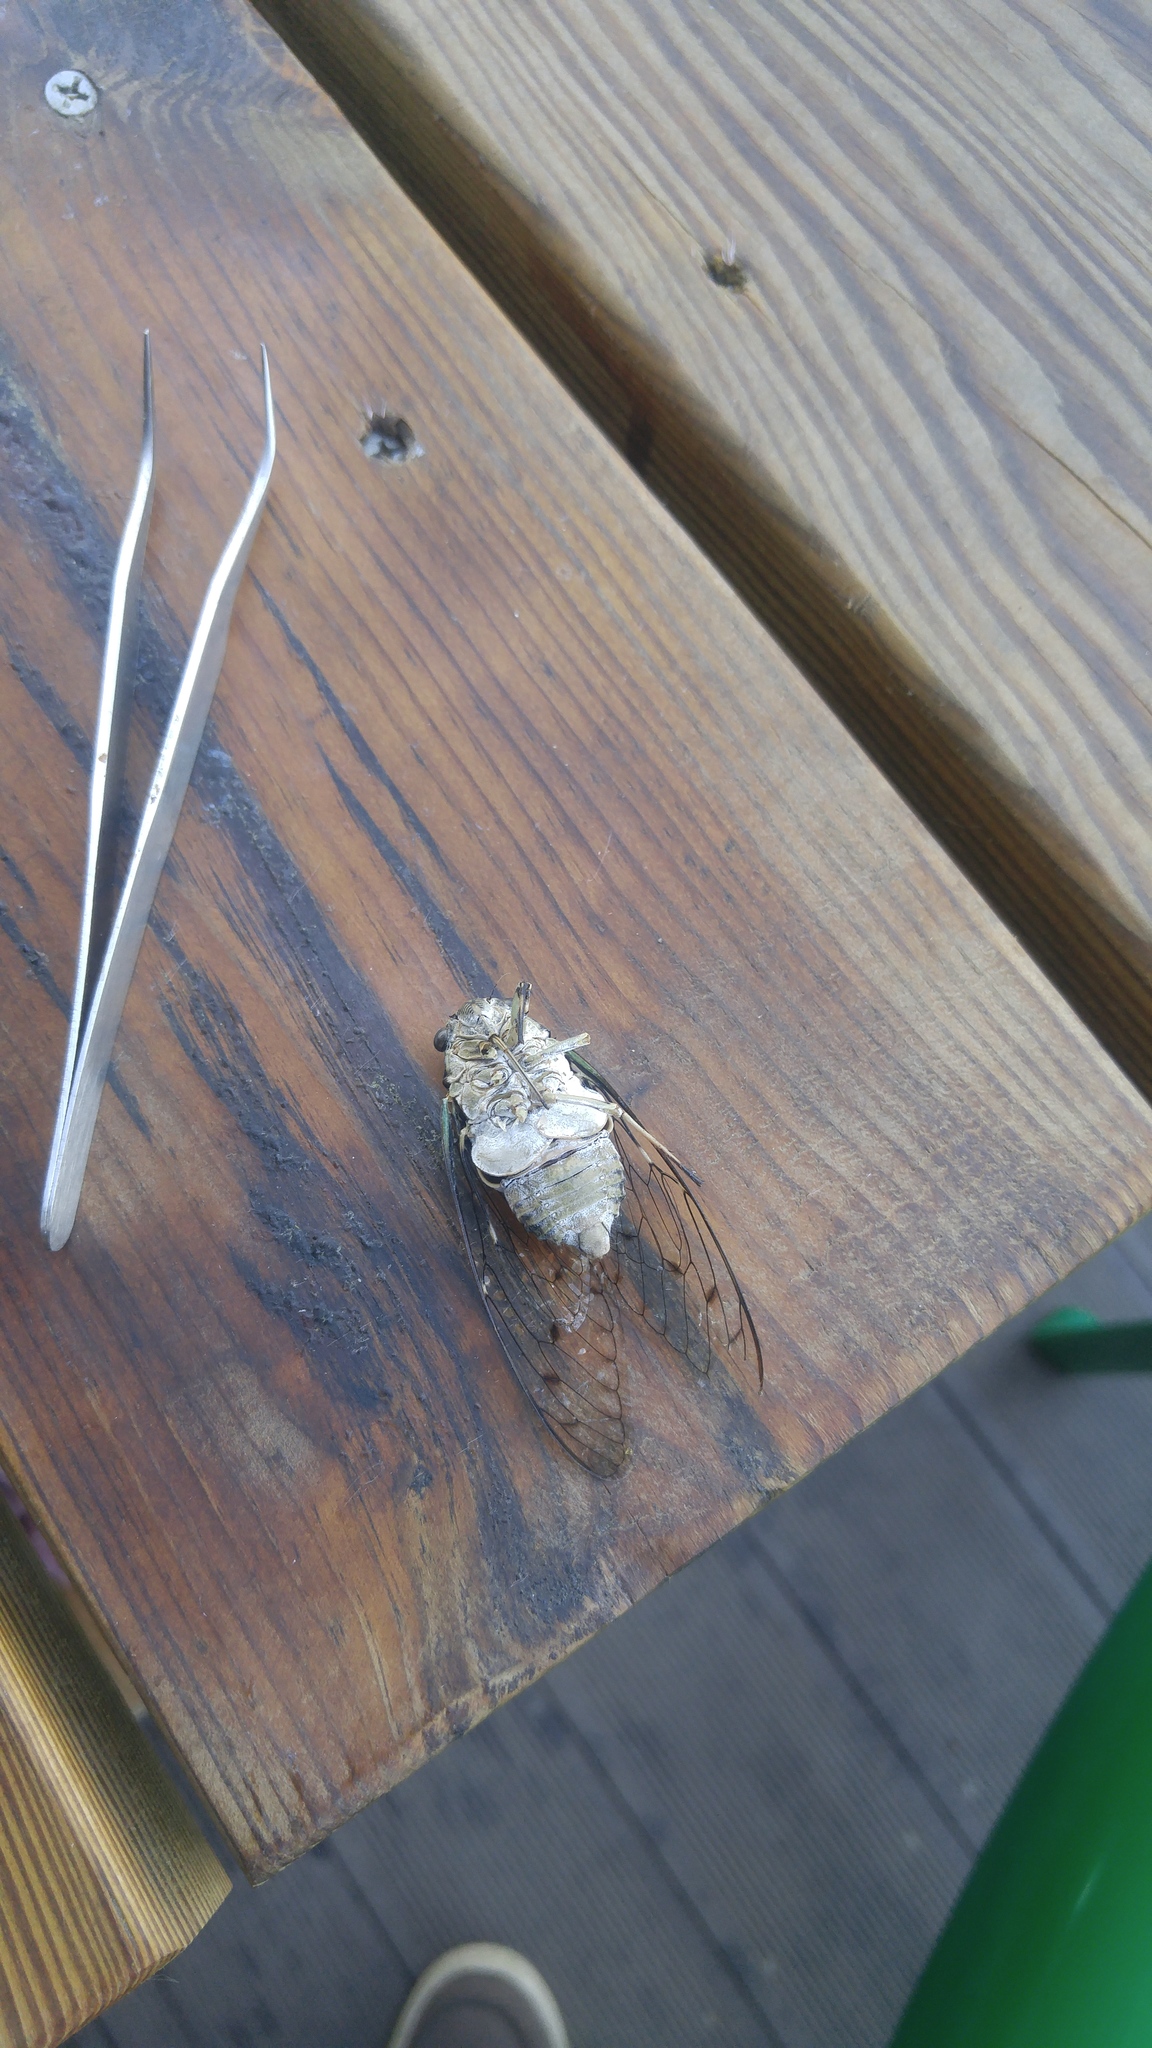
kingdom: Animalia
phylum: Arthropoda
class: Insecta
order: Hemiptera
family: Cicadidae
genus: Hyalessa
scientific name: Hyalessa maculaticollis
